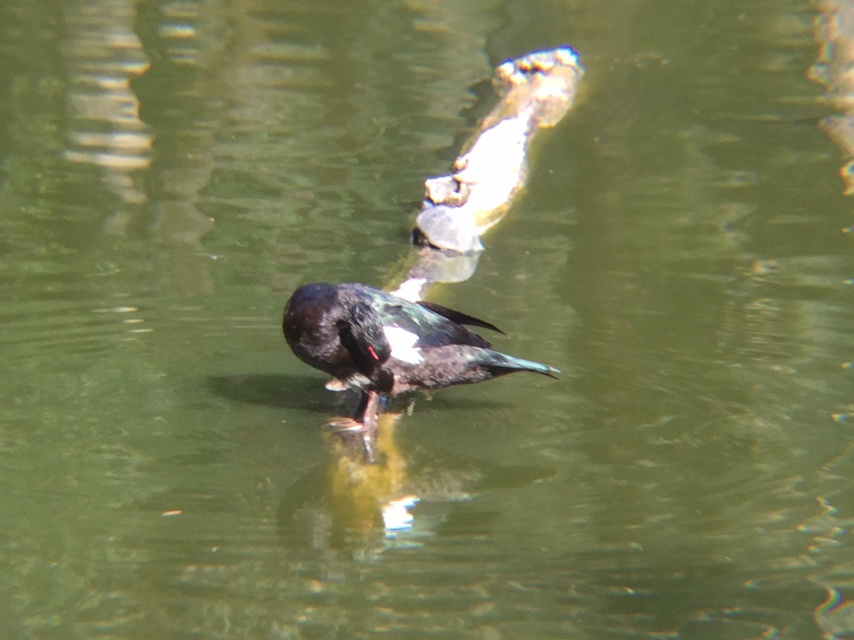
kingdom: Animalia
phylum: Chordata
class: Aves
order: Anseriformes
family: Anatidae
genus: Cairina
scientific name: Cairina moschata
